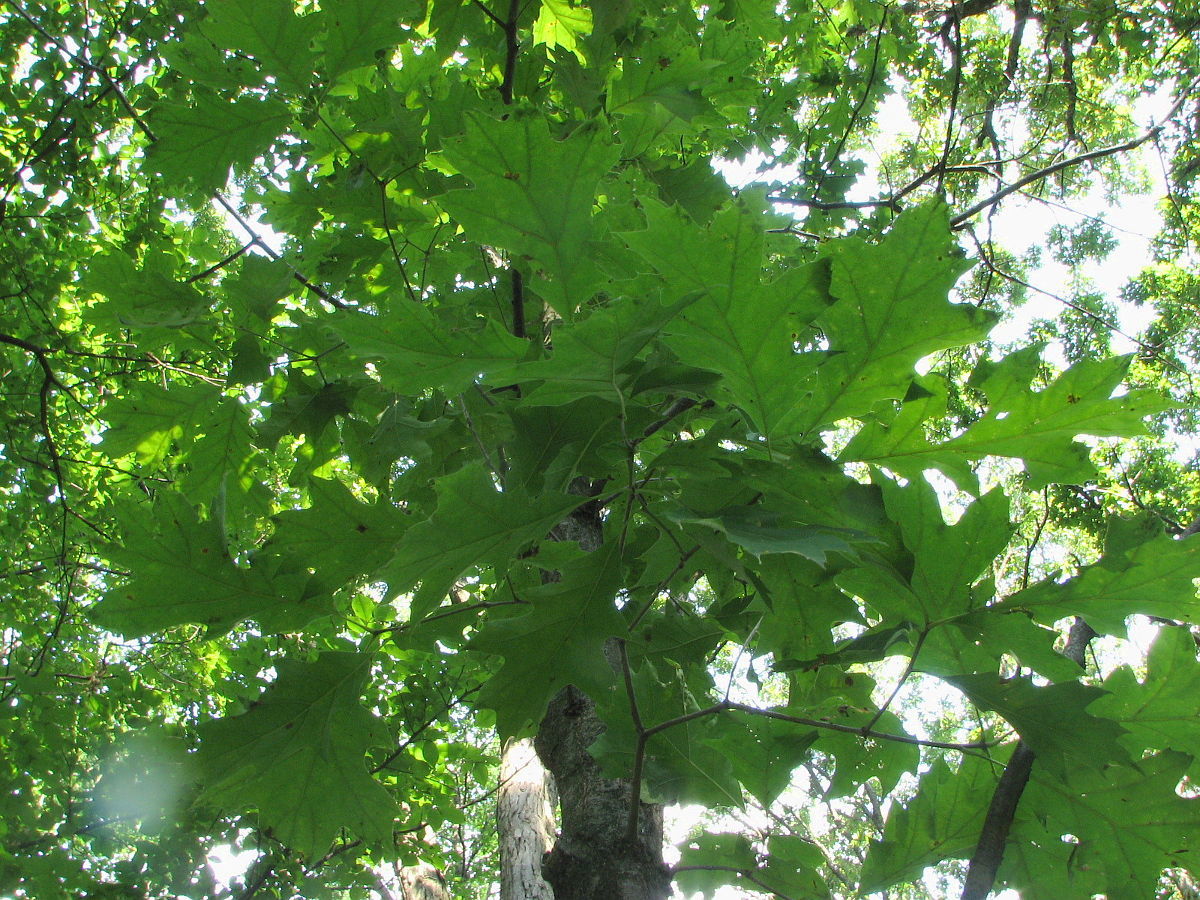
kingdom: Plantae
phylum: Tracheophyta
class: Magnoliopsida
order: Fagales
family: Fagaceae
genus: Quercus
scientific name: Quercus velutina
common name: Black oak
